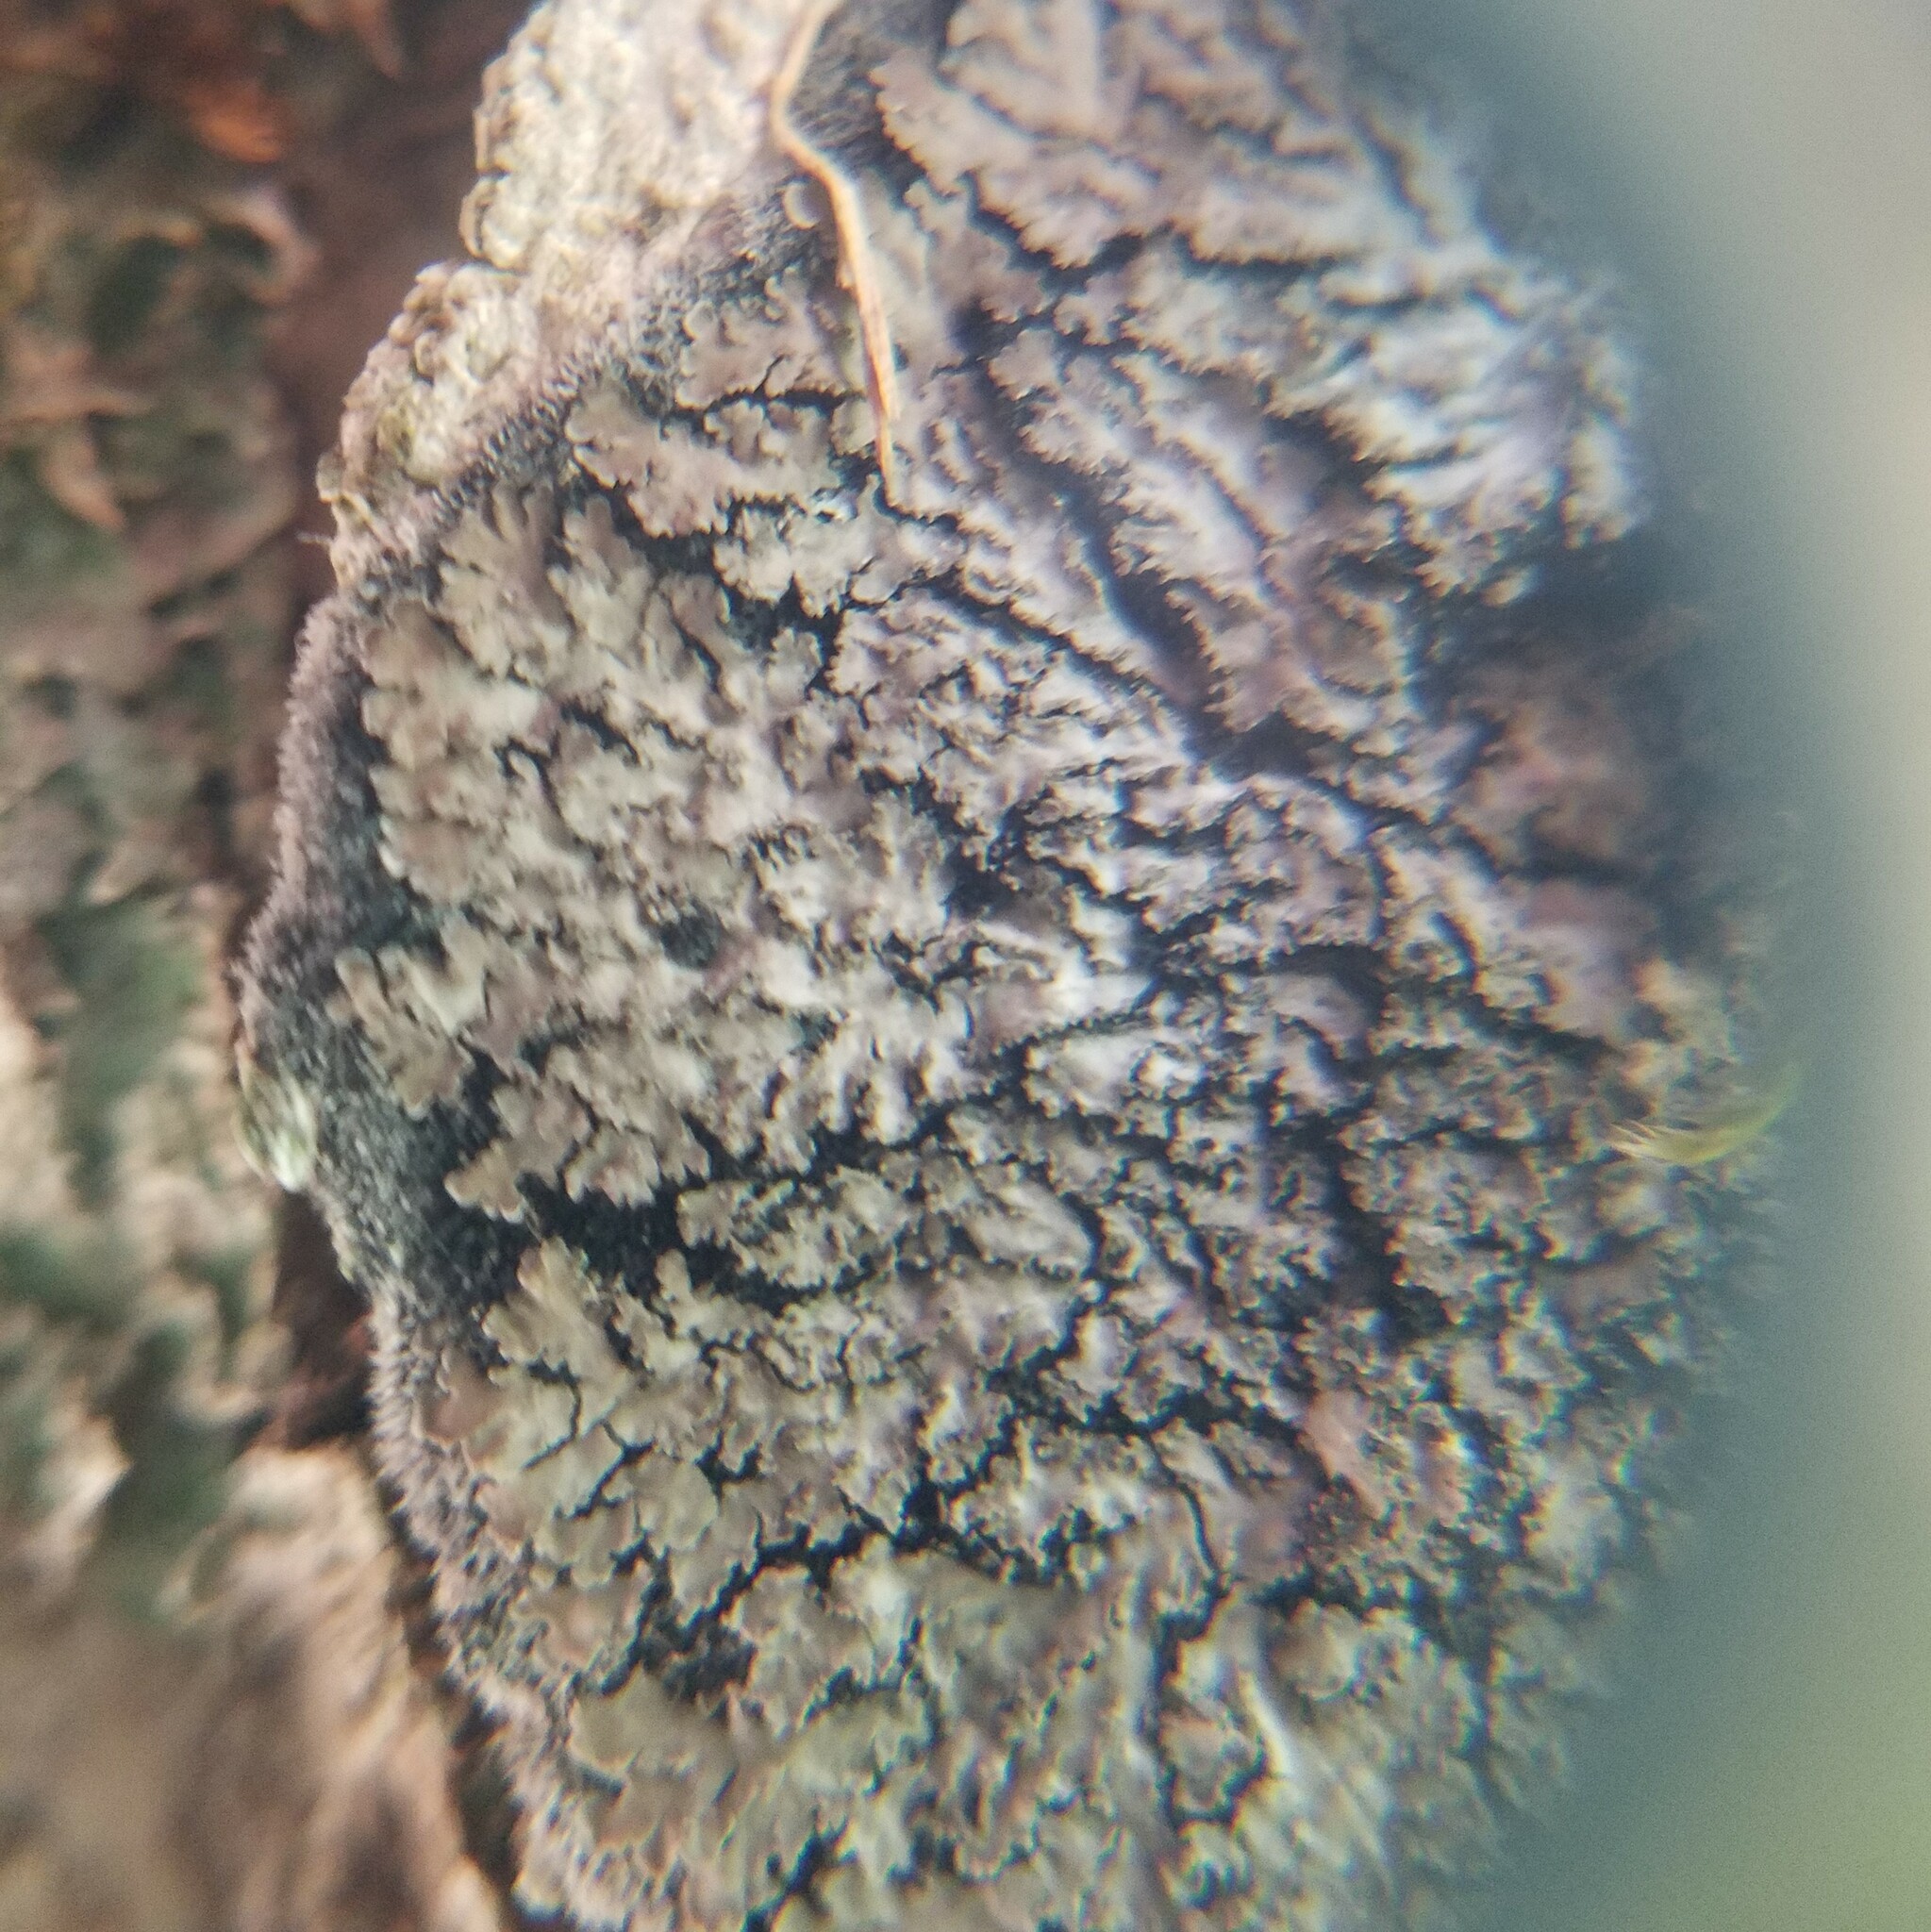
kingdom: Fungi
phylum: Ascomycota
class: Lecanoromycetes
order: Peltigerales
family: Pannariaceae
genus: Parmeliella
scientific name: Parmeliella appalachensis
